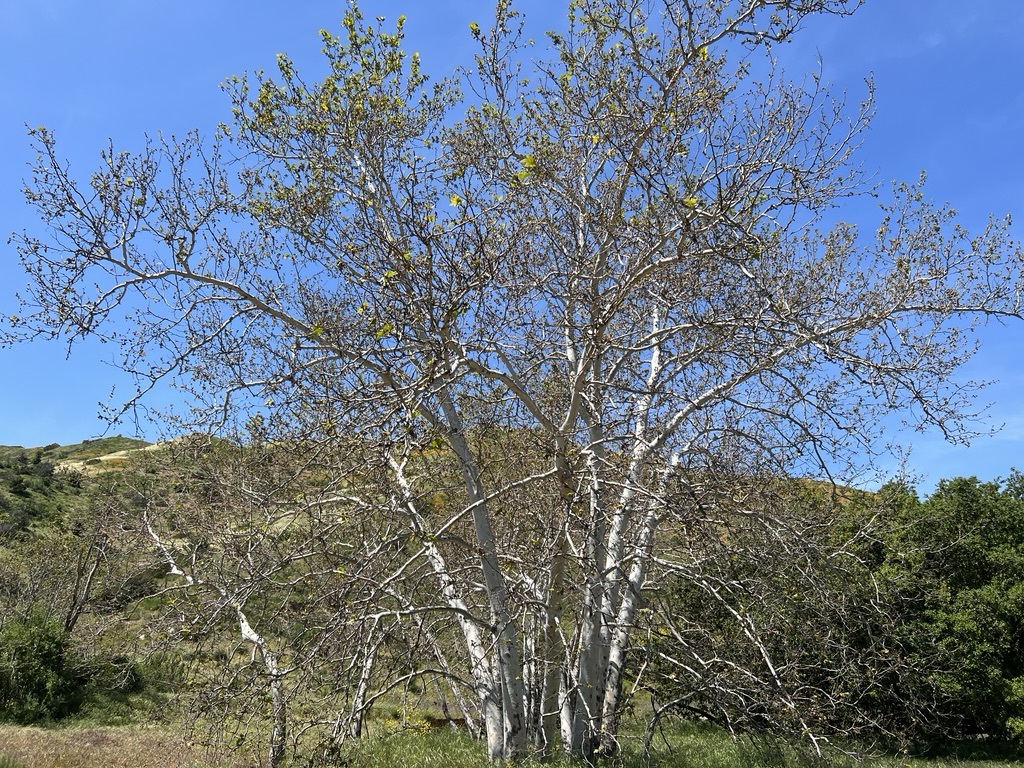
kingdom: Plantae
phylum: Tracheophyta
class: Magnoliopsida
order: Proteales
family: Platanaceae
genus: Platanus
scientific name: Platanus racemosa
